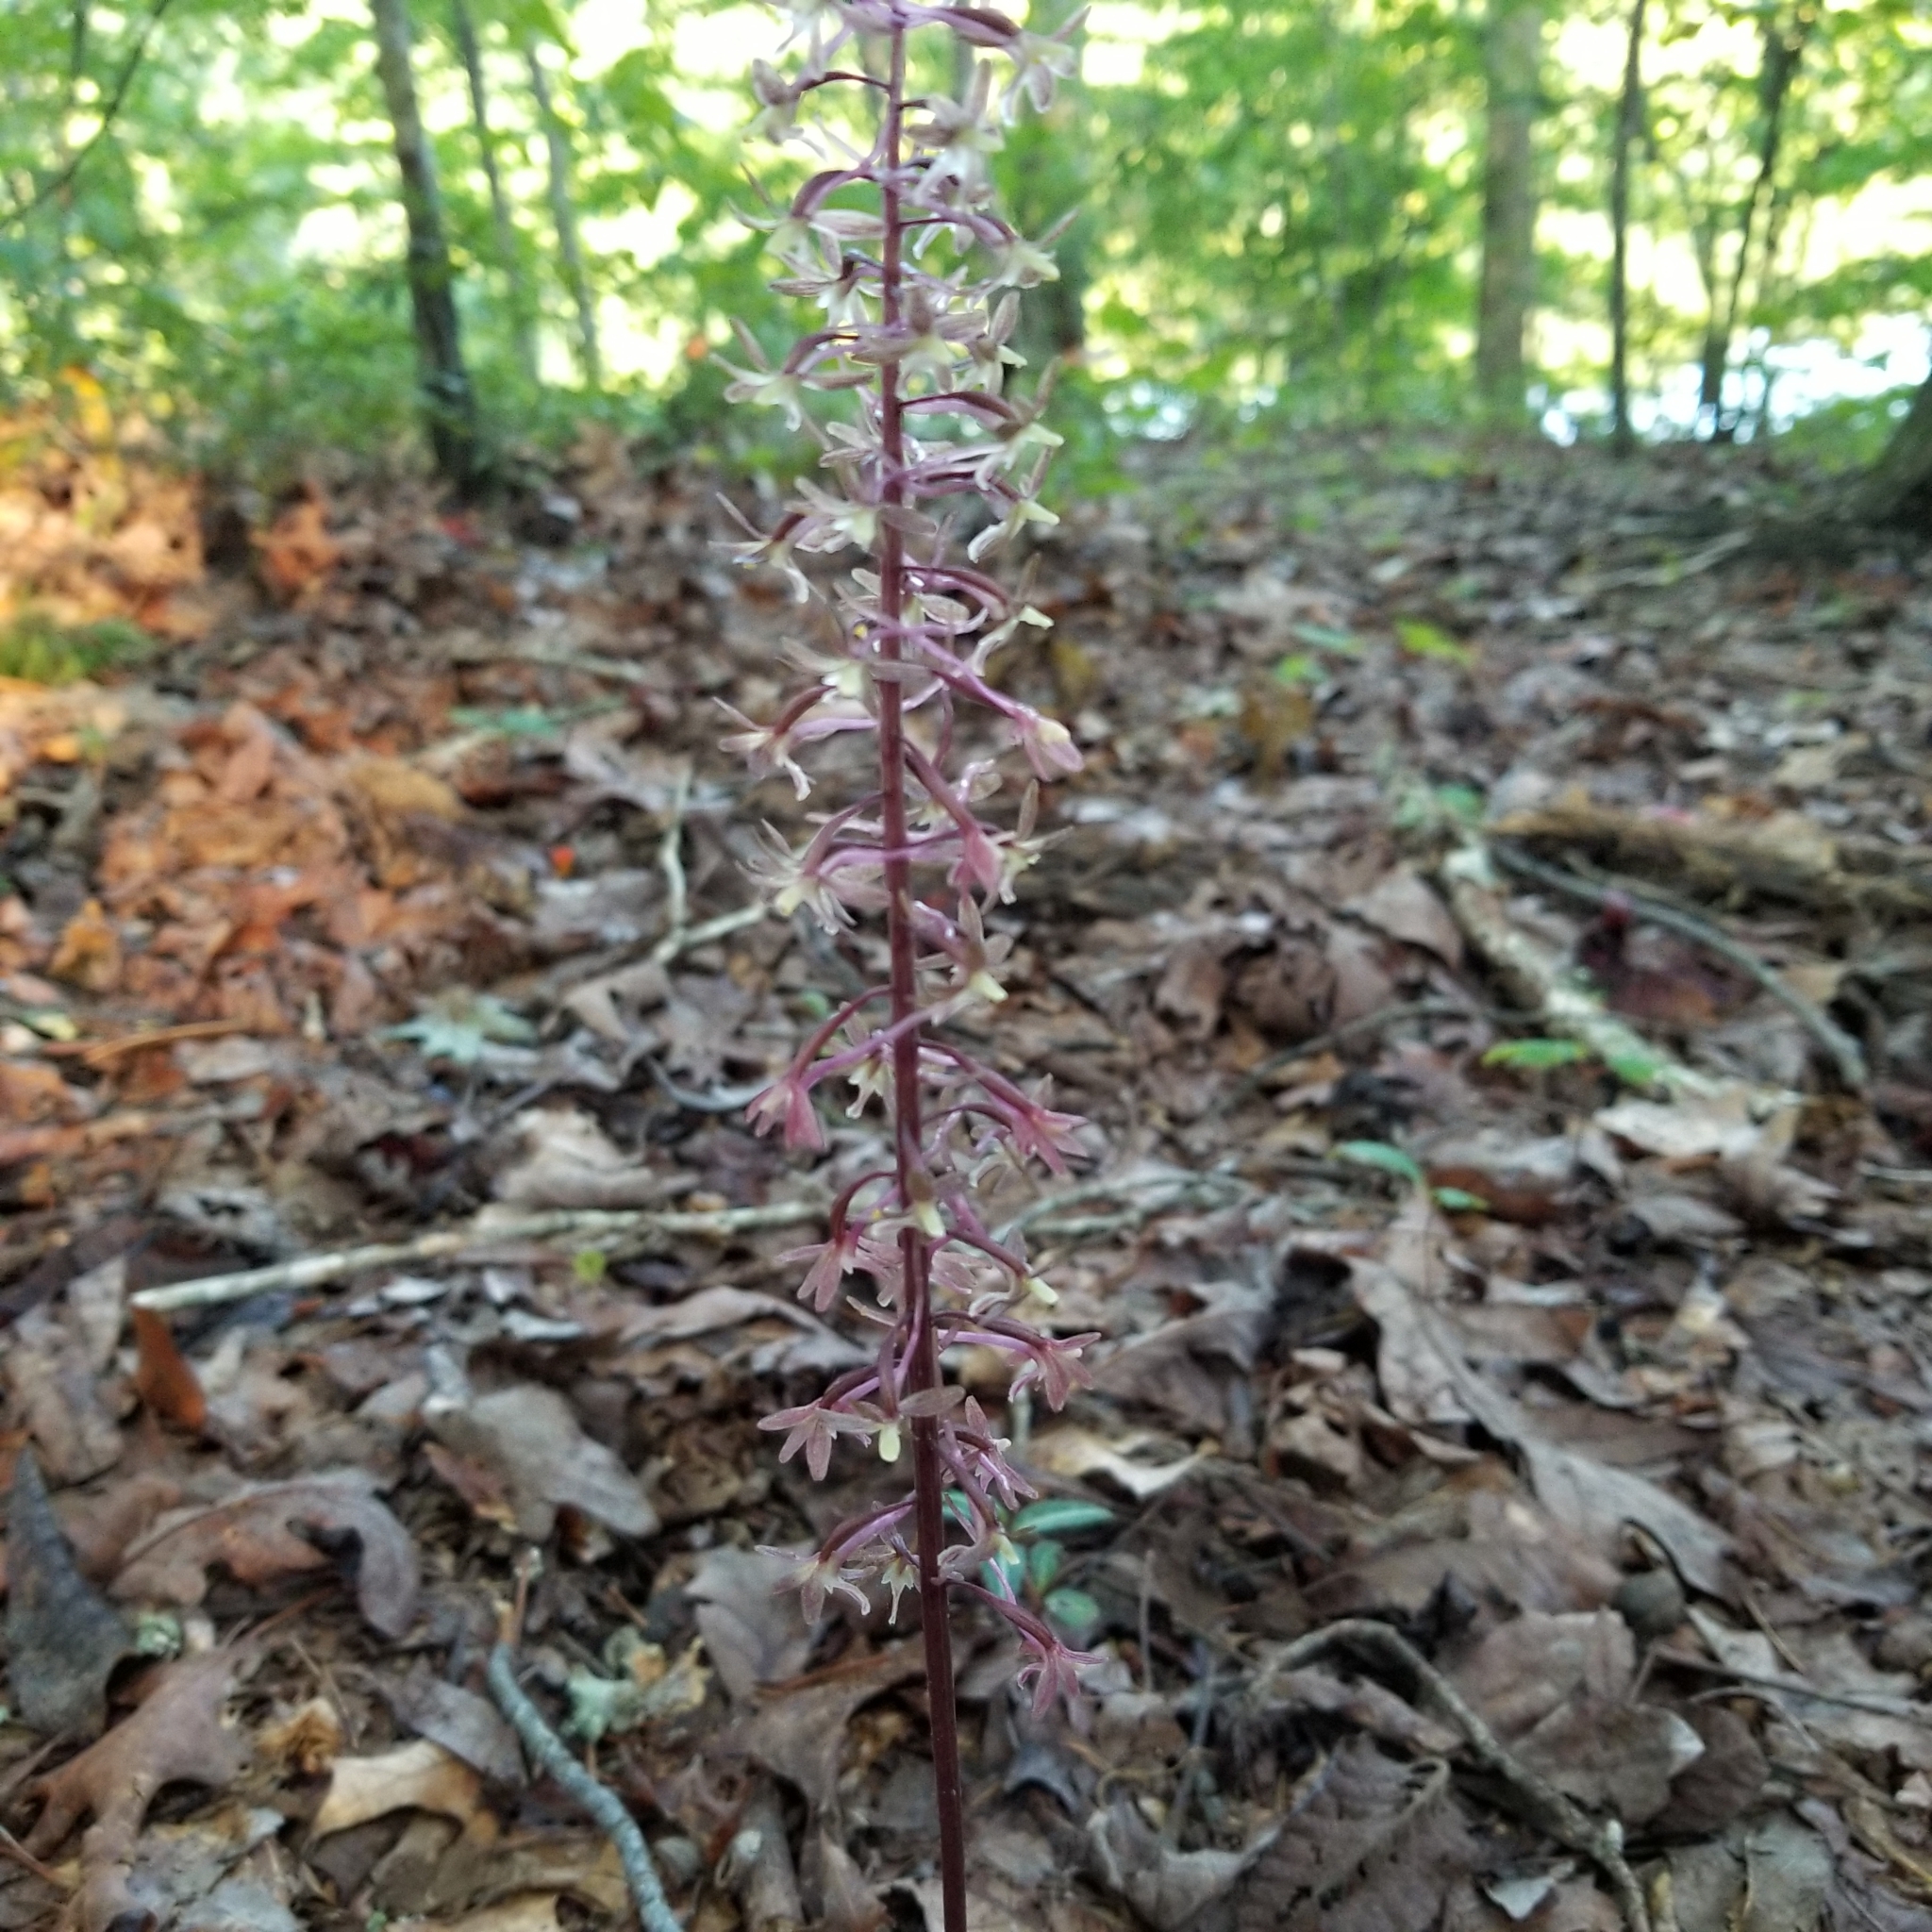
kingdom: Plantae
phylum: Tracheophyta
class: Liliopsida
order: Asparagales
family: Orchidaceae
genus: Tipularia
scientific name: Tipularia discolor
